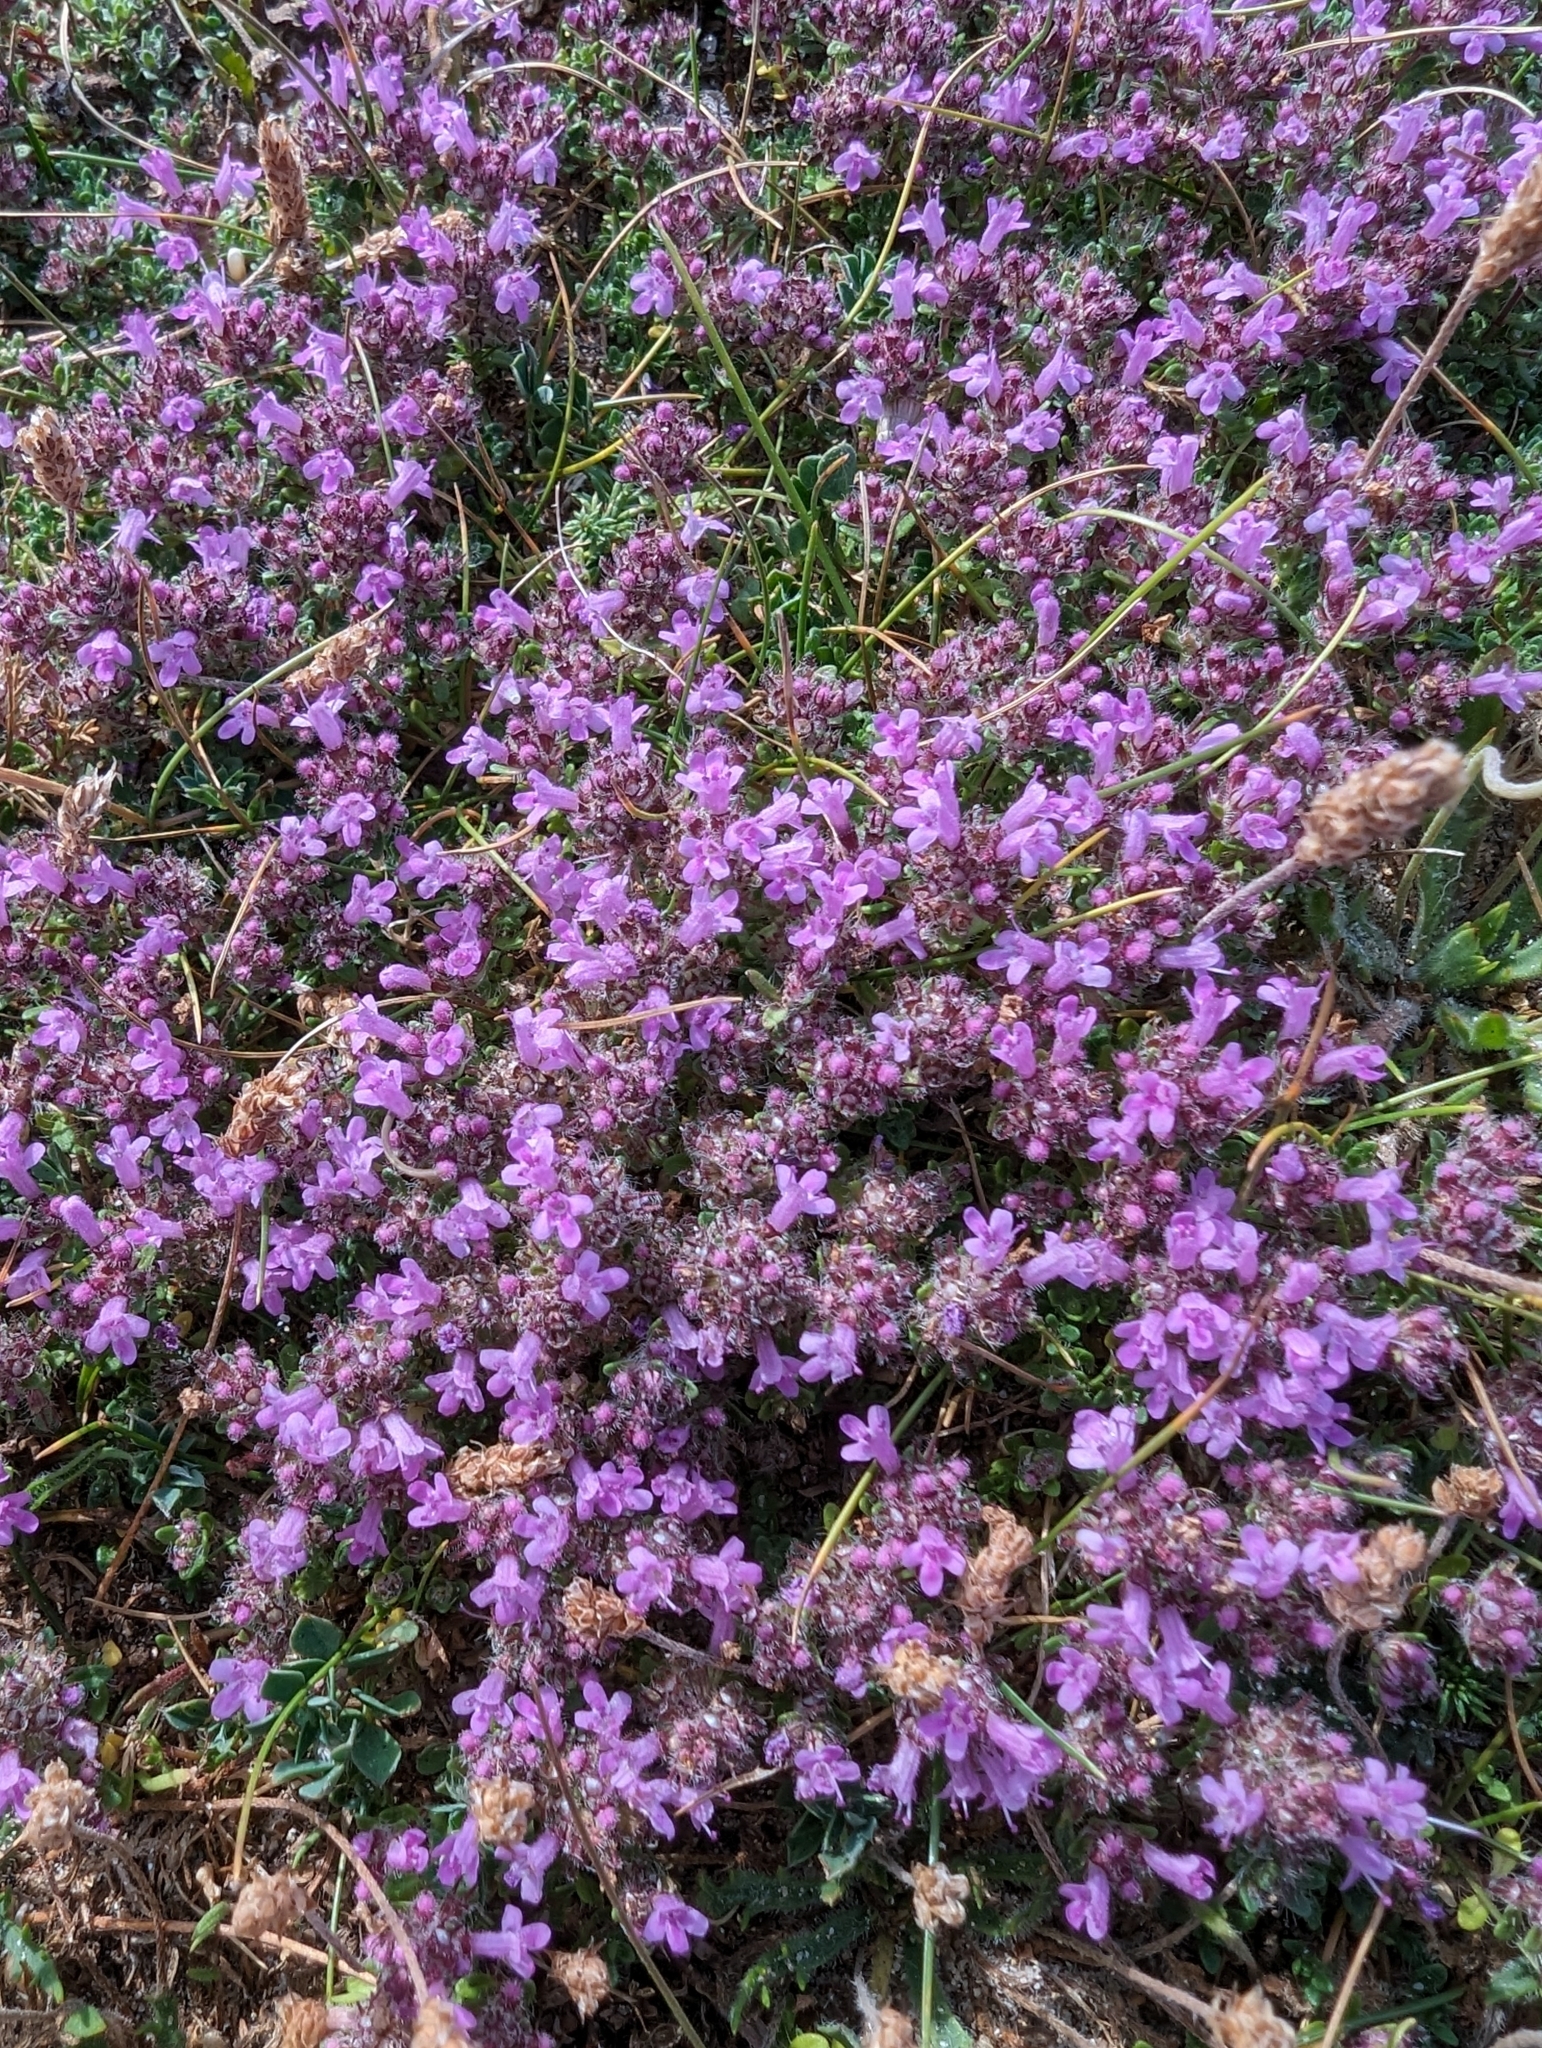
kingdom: Plantae
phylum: Tracheophyta
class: Magnoliopsida
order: Lamiales
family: Lamiaceae
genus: Thymus
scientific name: Thymus praecox
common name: Wild thyme
